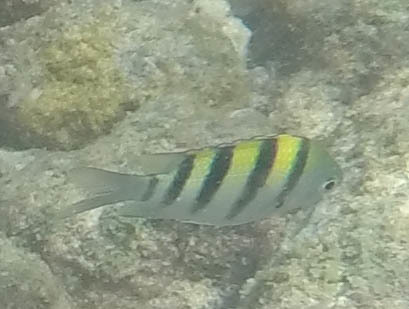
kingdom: Animalia
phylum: Chordata
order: Perciformes
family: Pomacentridae
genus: Abudefduf
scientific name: Abudefduf vaigiensis
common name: Indo-pacific sergeant
